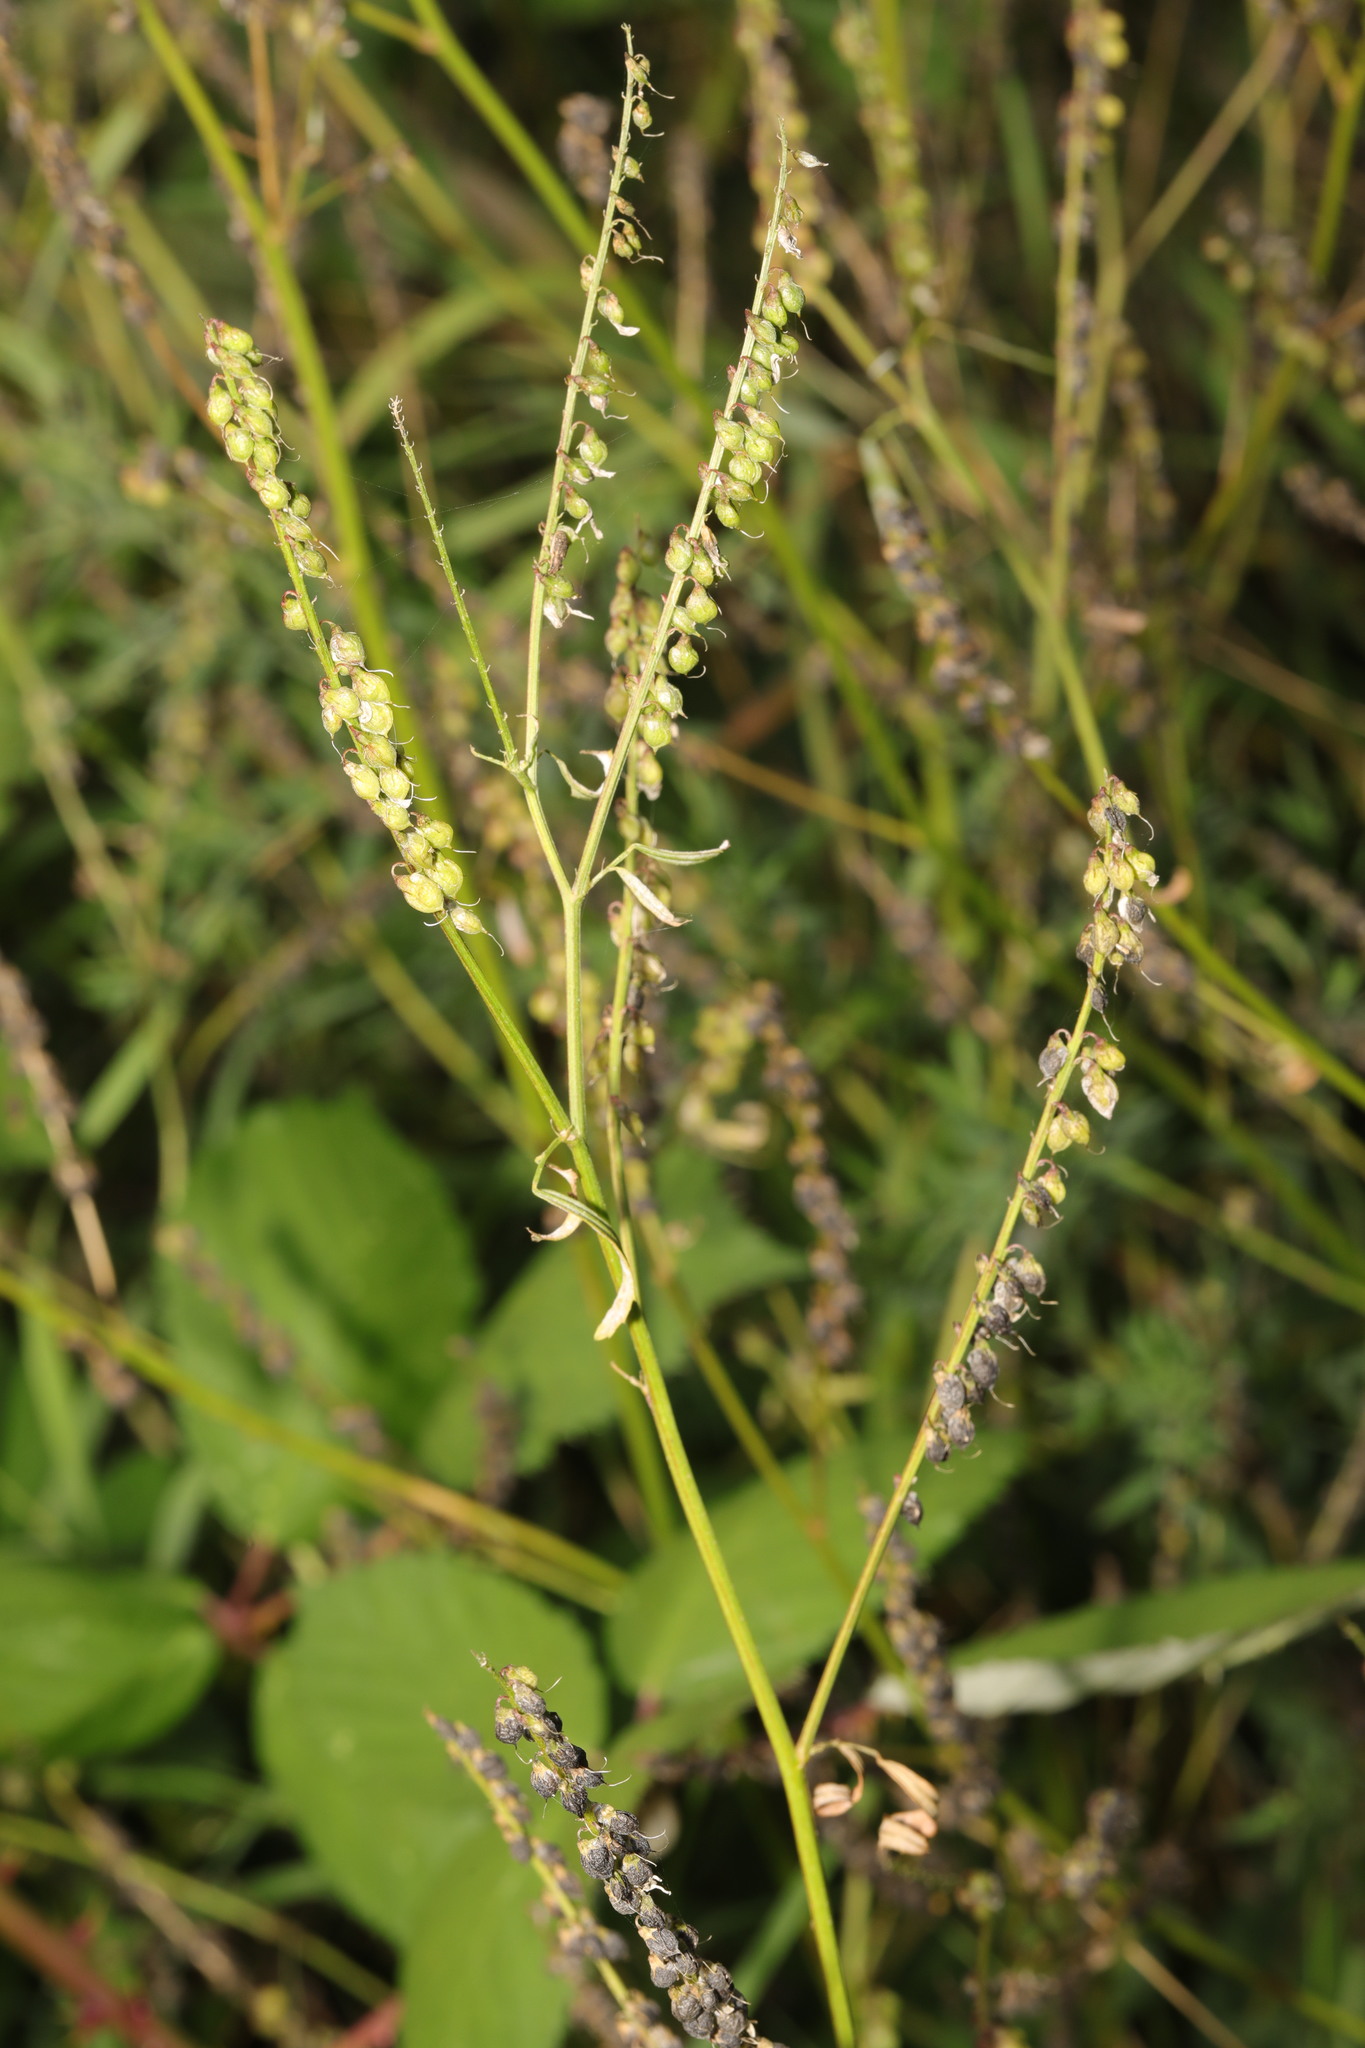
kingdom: Plantae
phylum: Tracheophyta
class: Magnoliopsida
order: Fabales
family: Fabaceae
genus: Melilotus
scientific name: Melilotus officinalis
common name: Sweetclover
